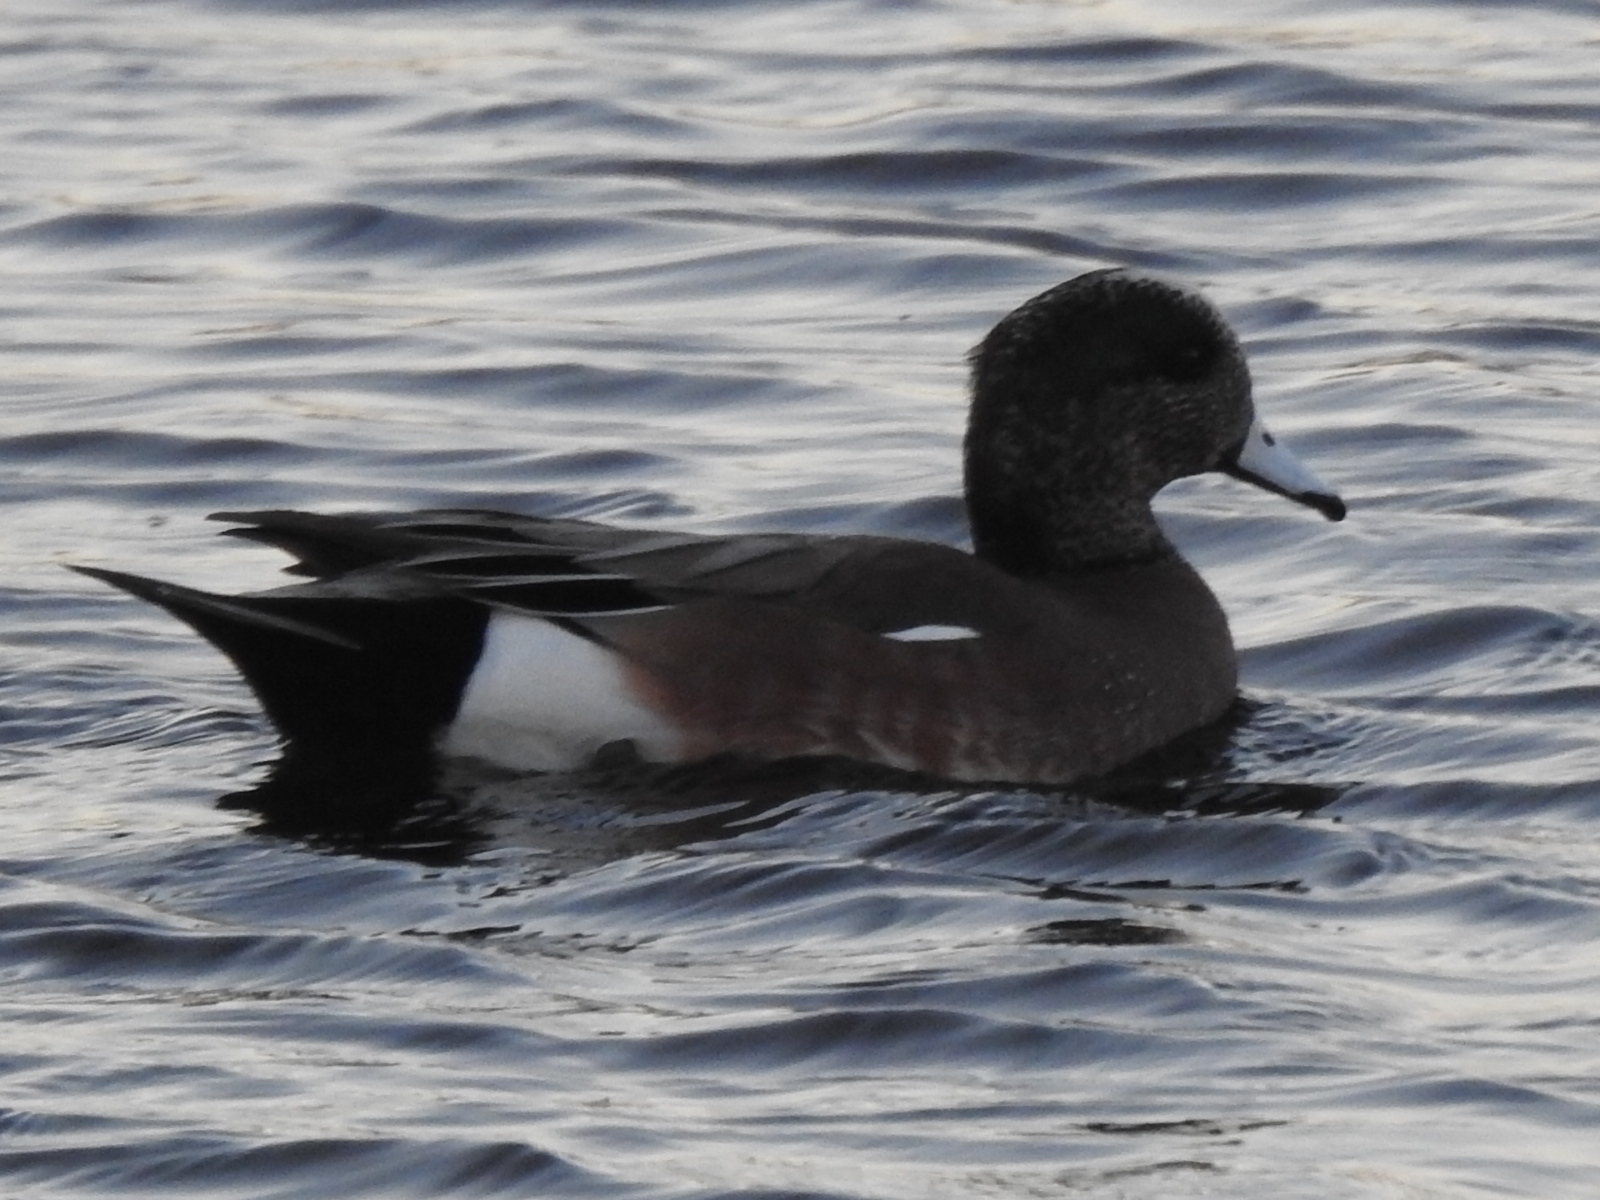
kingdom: Animalia
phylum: Chordata
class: Aves
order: Anseriformes
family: Anatidae
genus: Mareca
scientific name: Mareca americana
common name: American wigeon
